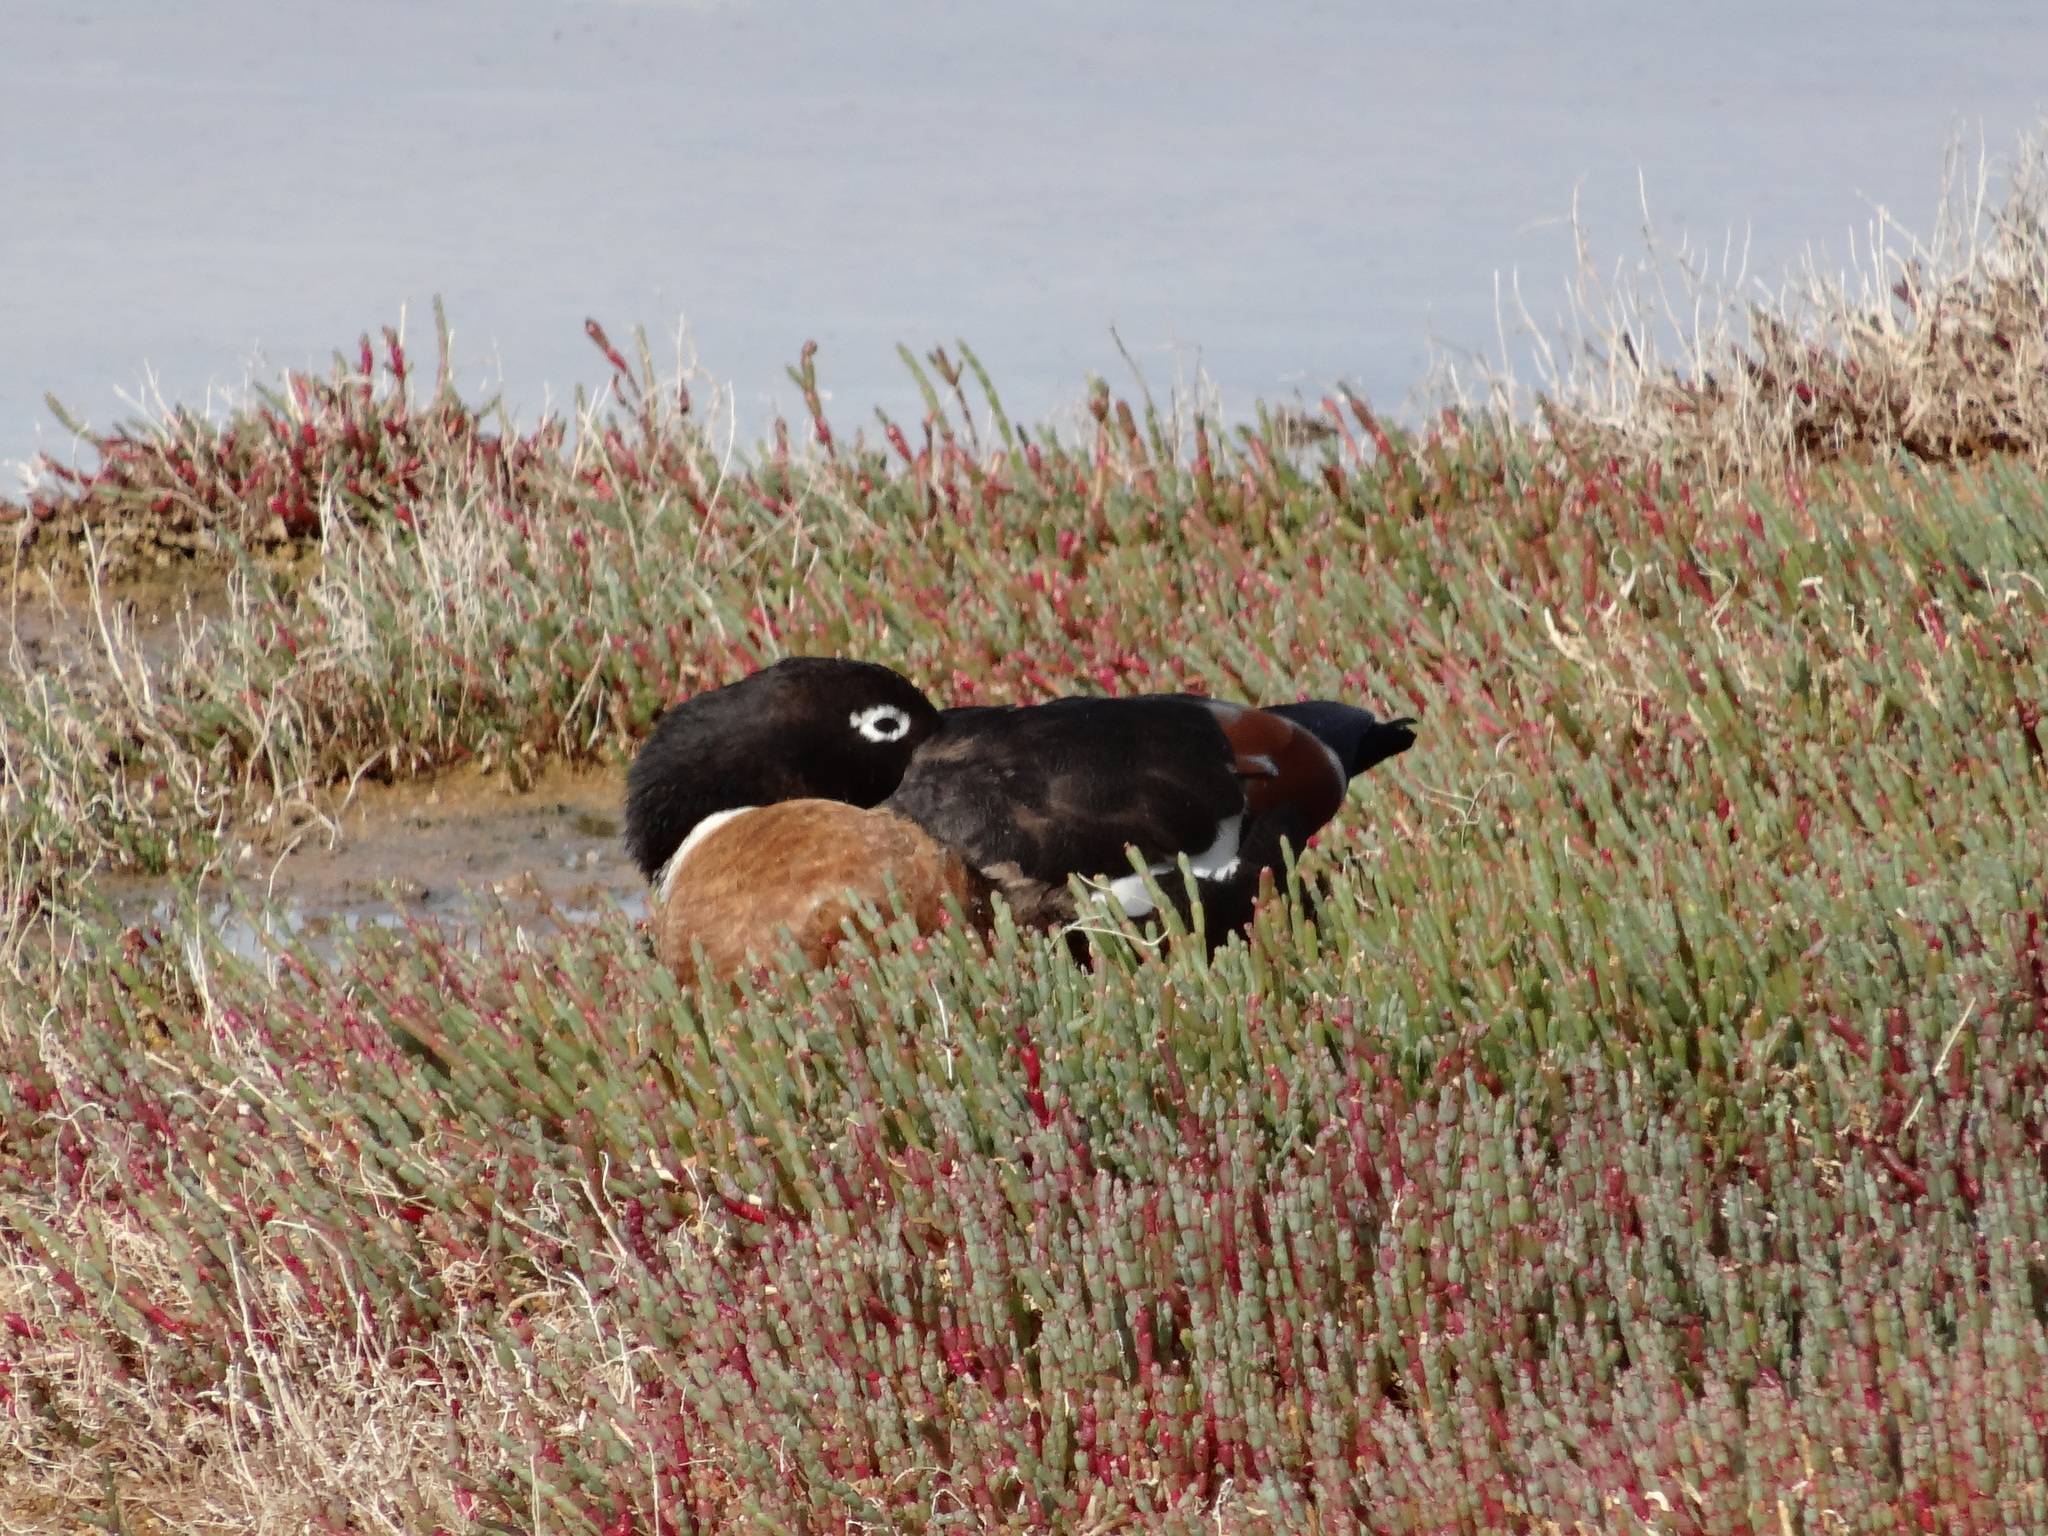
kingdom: Animalia
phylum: Chordata
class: Aves
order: Anseriformes
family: Anatidae
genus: Tadorna
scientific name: Tadorna tadornoides
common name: Australian shelduck
